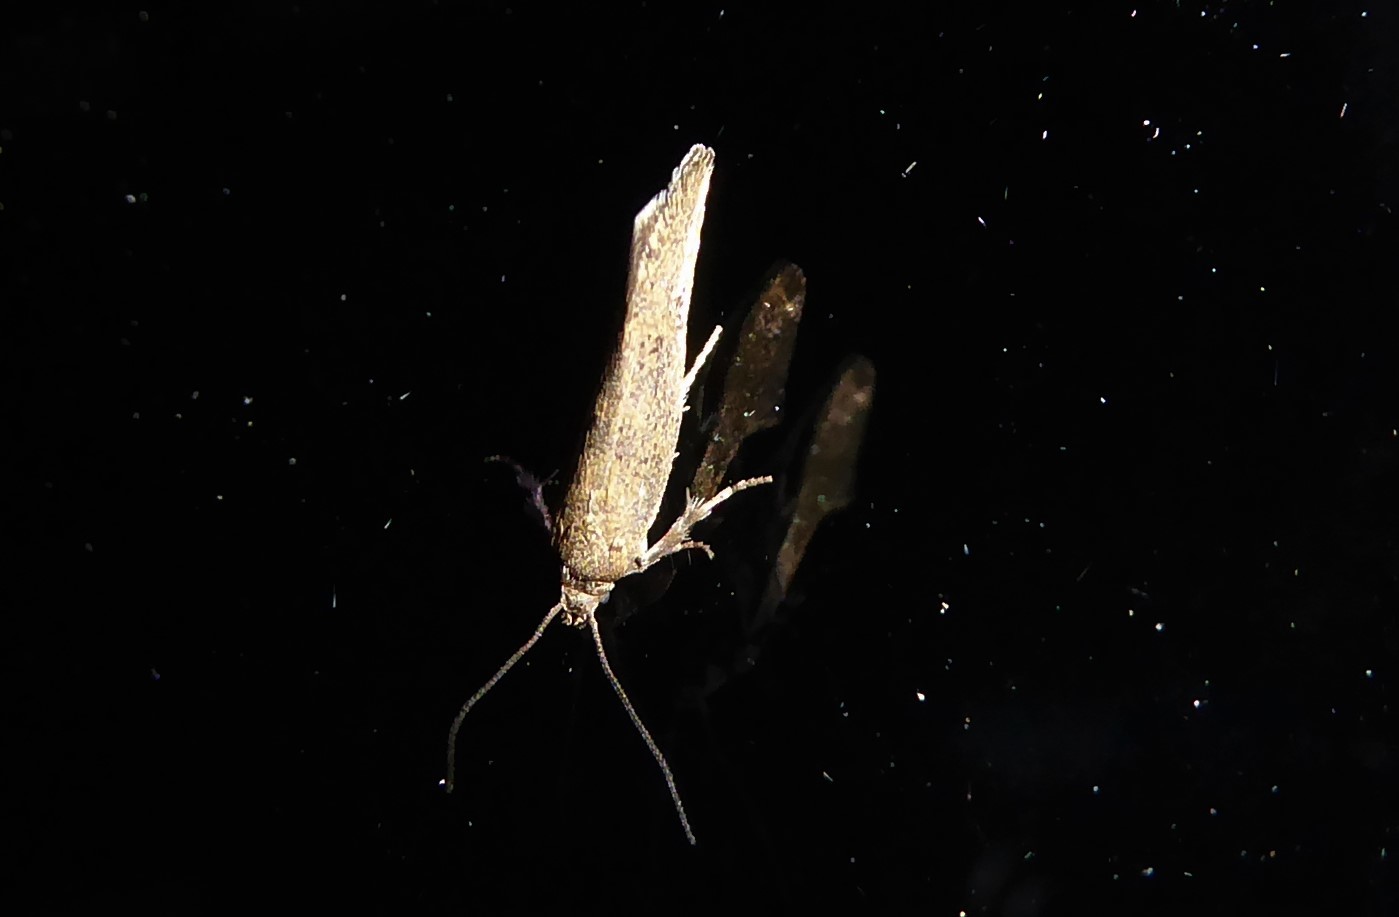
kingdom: Animalia
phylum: Arthropoda
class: Insecta
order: Lepidoptera
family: Oecophoridae
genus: Tingena
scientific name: Tingena siderodeta
